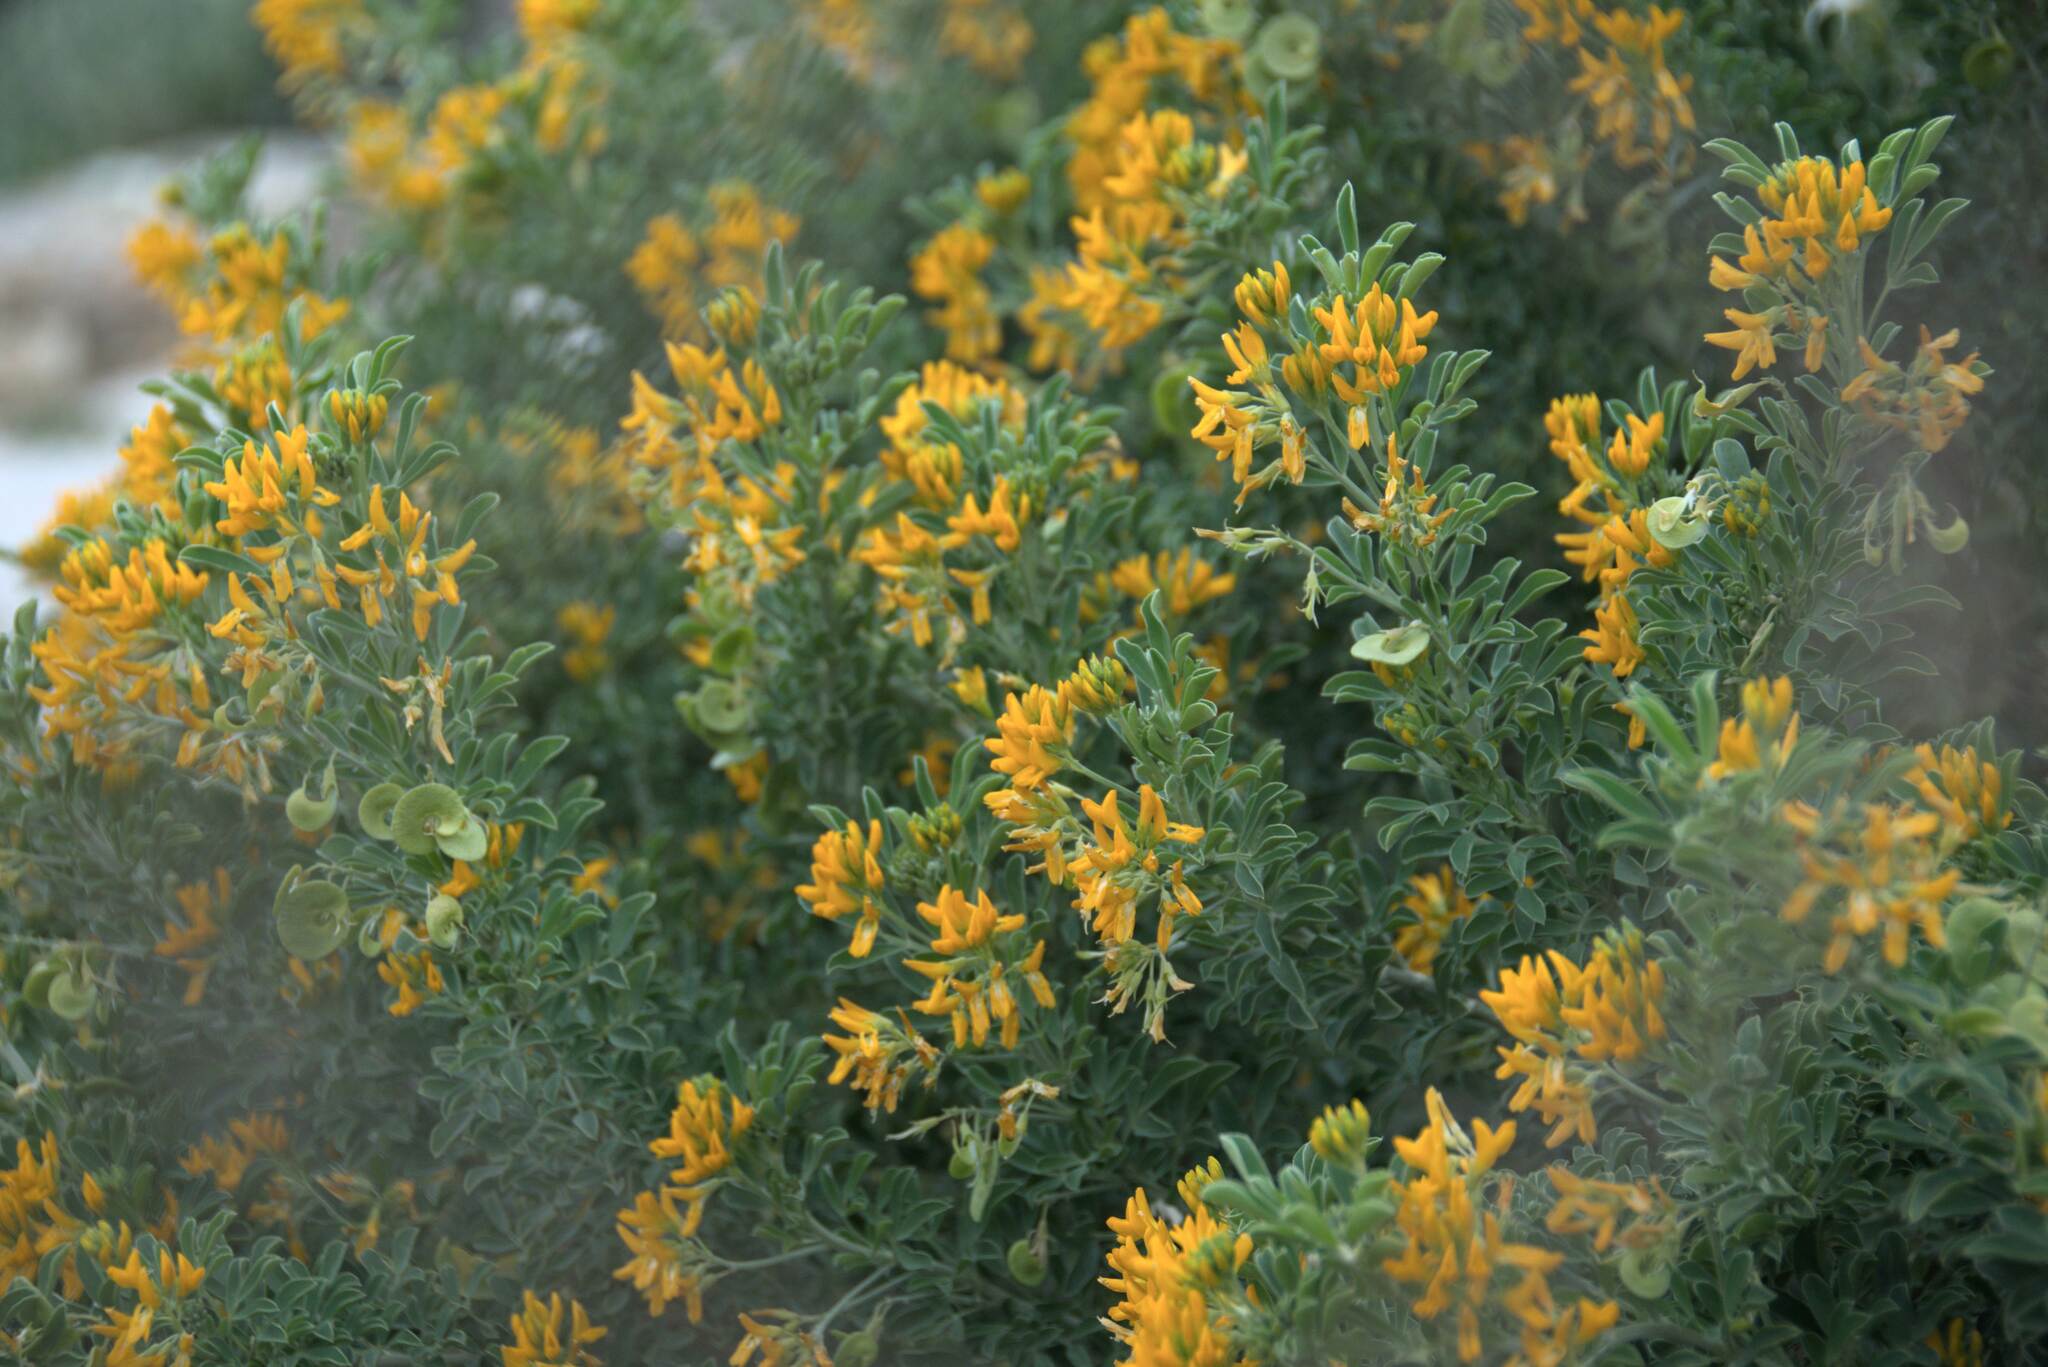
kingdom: Plantae
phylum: Tracheophyta
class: Magnoliopsida
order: Fabales
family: Fabaceae
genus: Medicago
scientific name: Medicago arborea
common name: Moon trefoil
